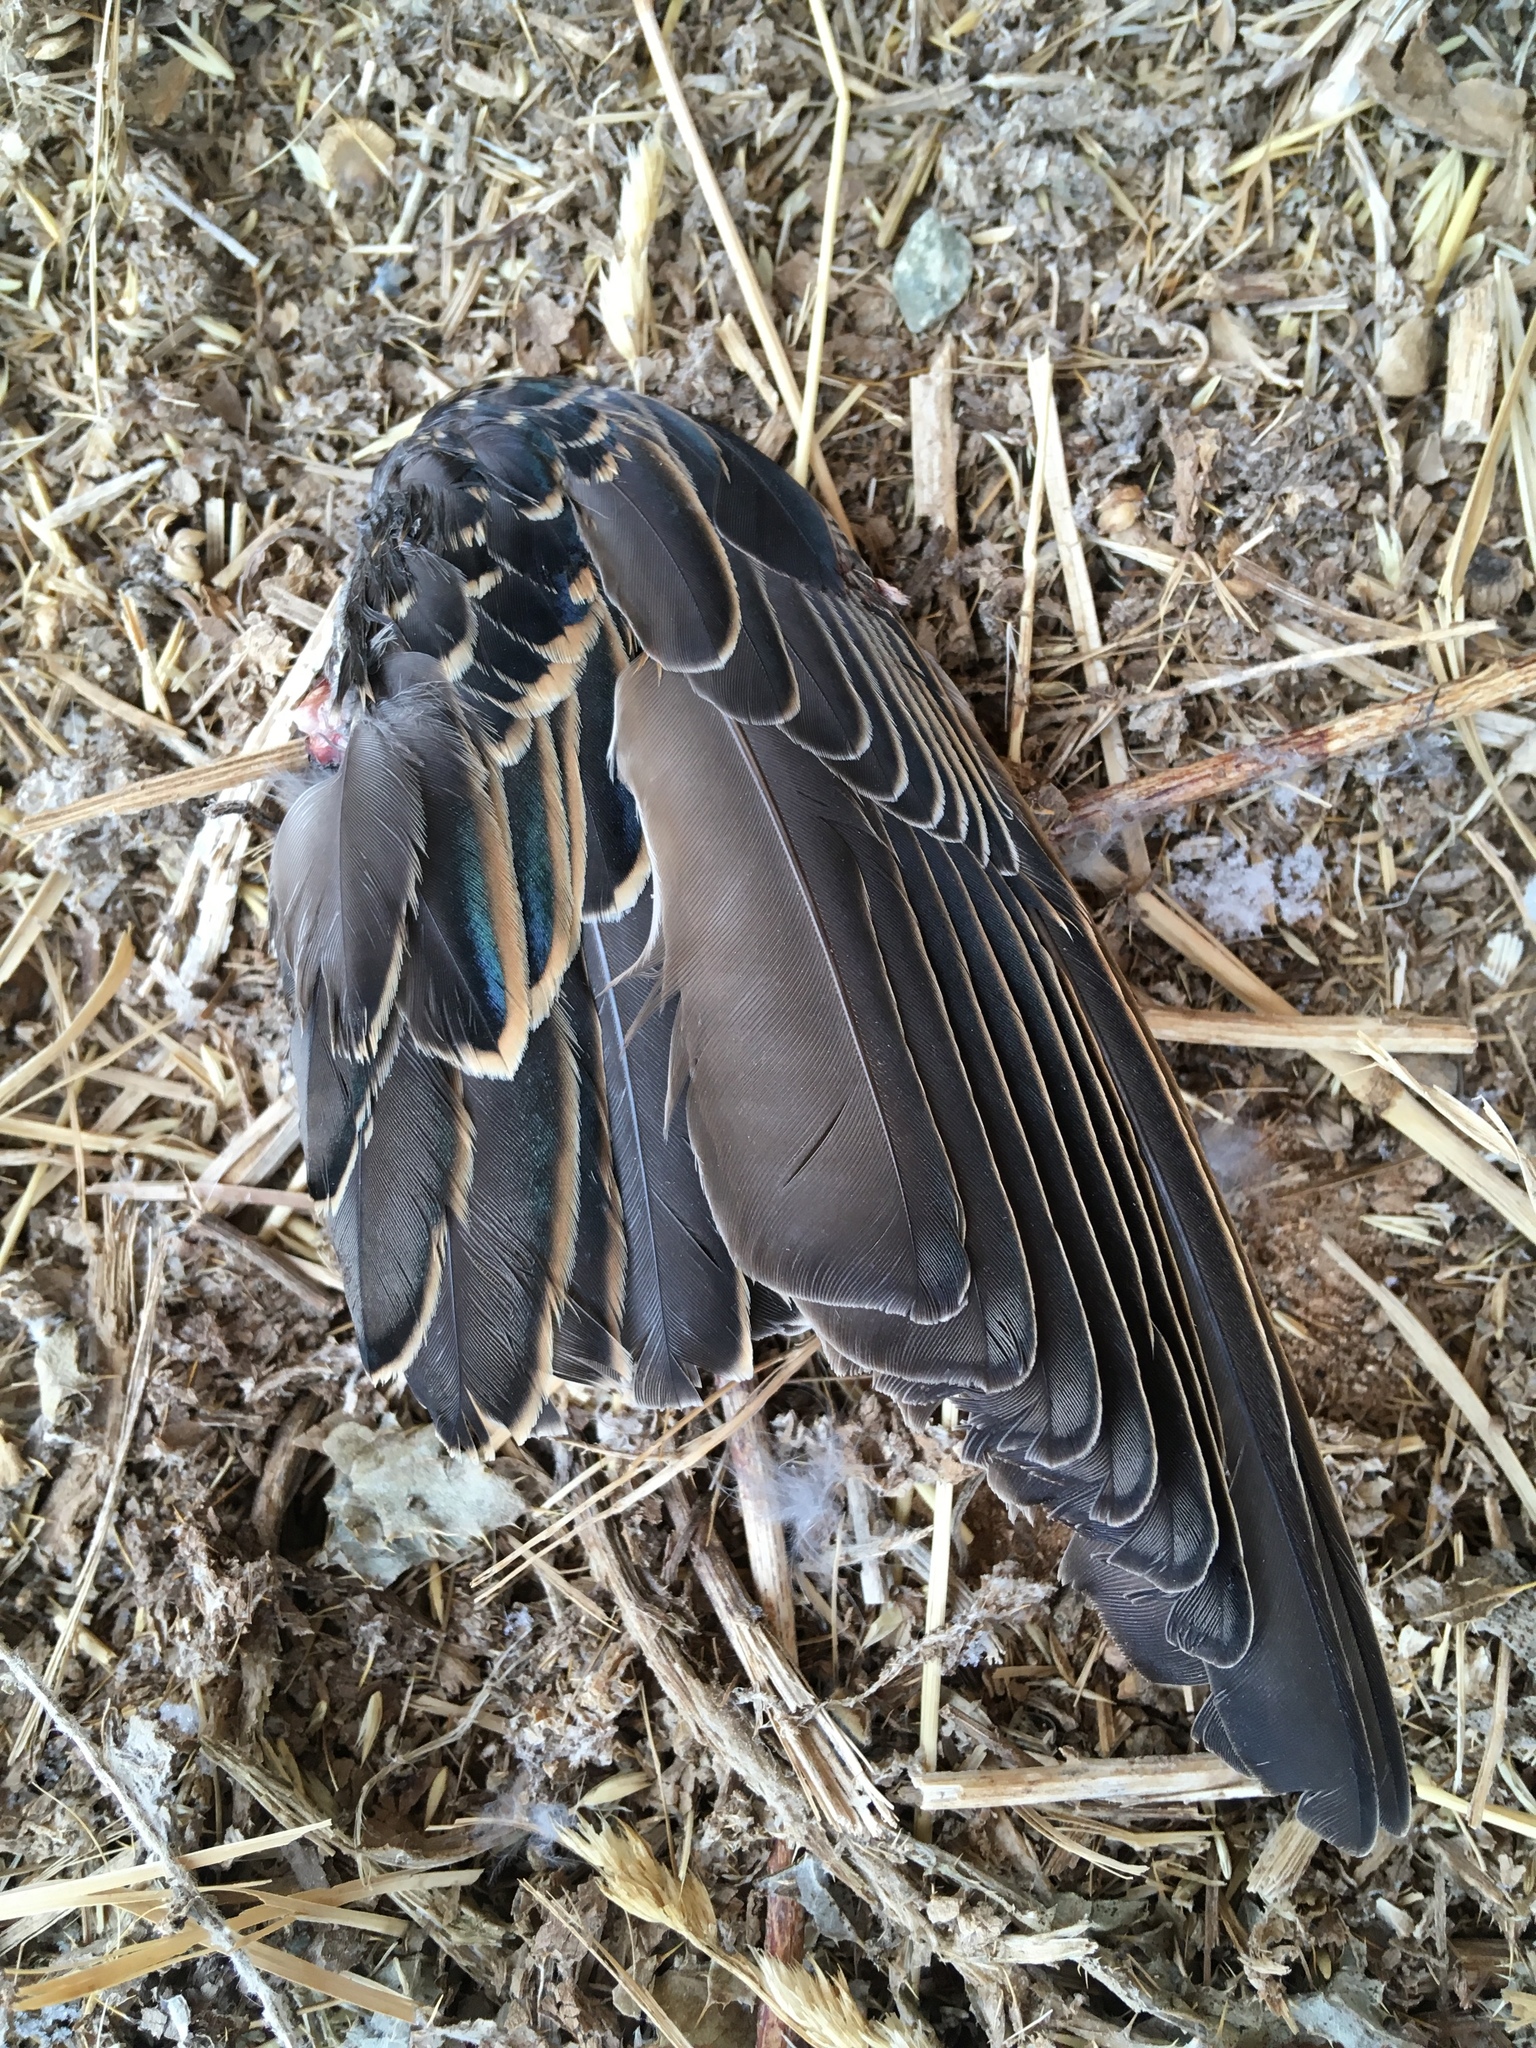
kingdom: Animalia
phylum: Chordata
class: Aves
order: Passeriformes
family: Sturnidae
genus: Sturnus
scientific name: Sturnus vulgaris
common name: Common starling
